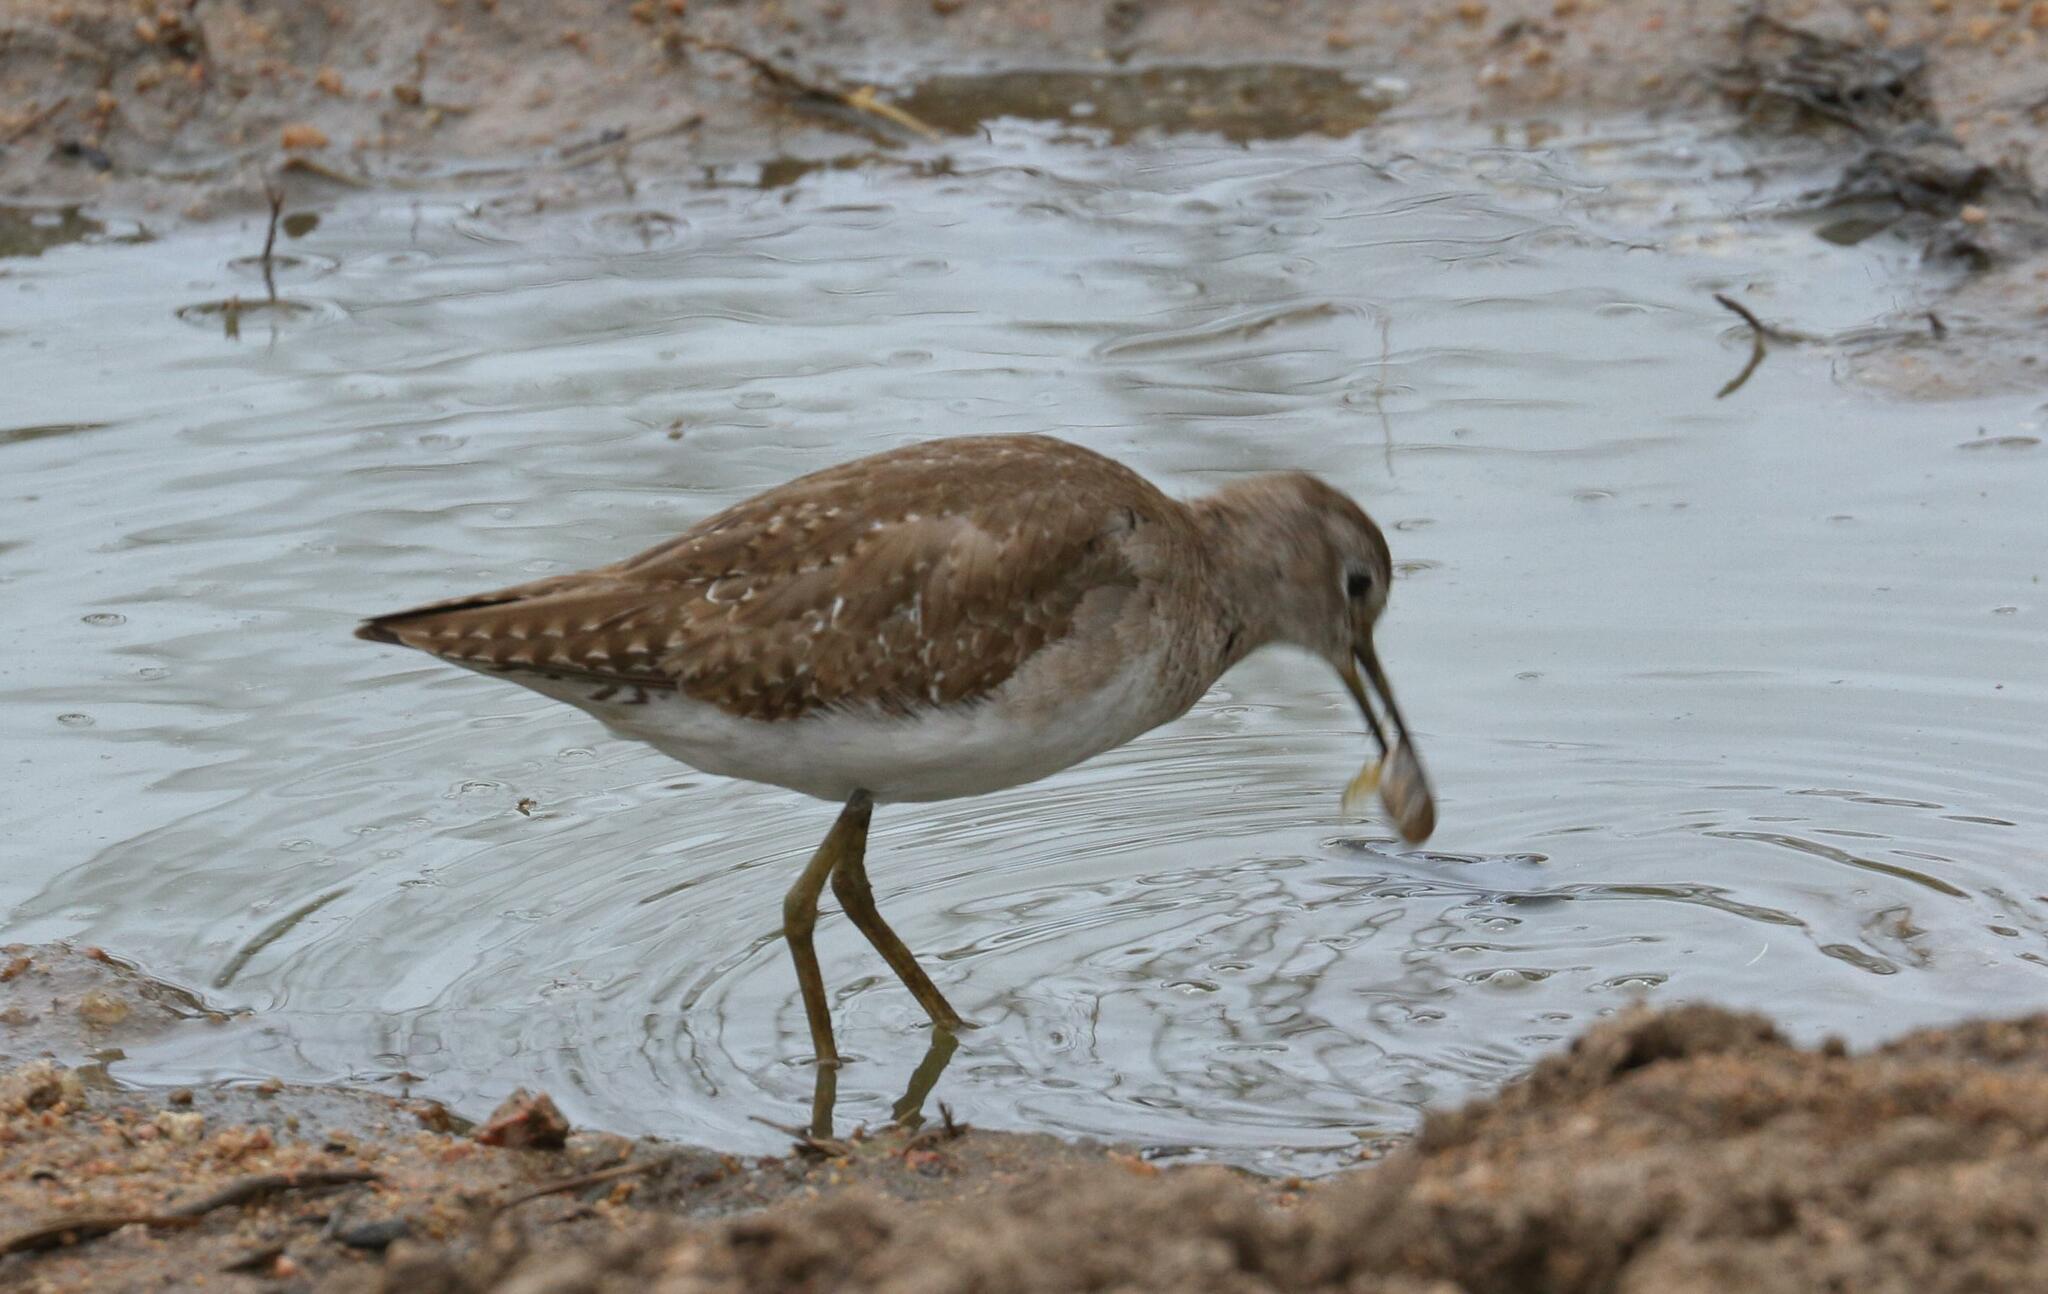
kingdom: Animalia
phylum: Chordata
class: Aves
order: Charadriiformes
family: Scolopacidae
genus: Tringa
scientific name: Tringa ochropus
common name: Green sandpiper
